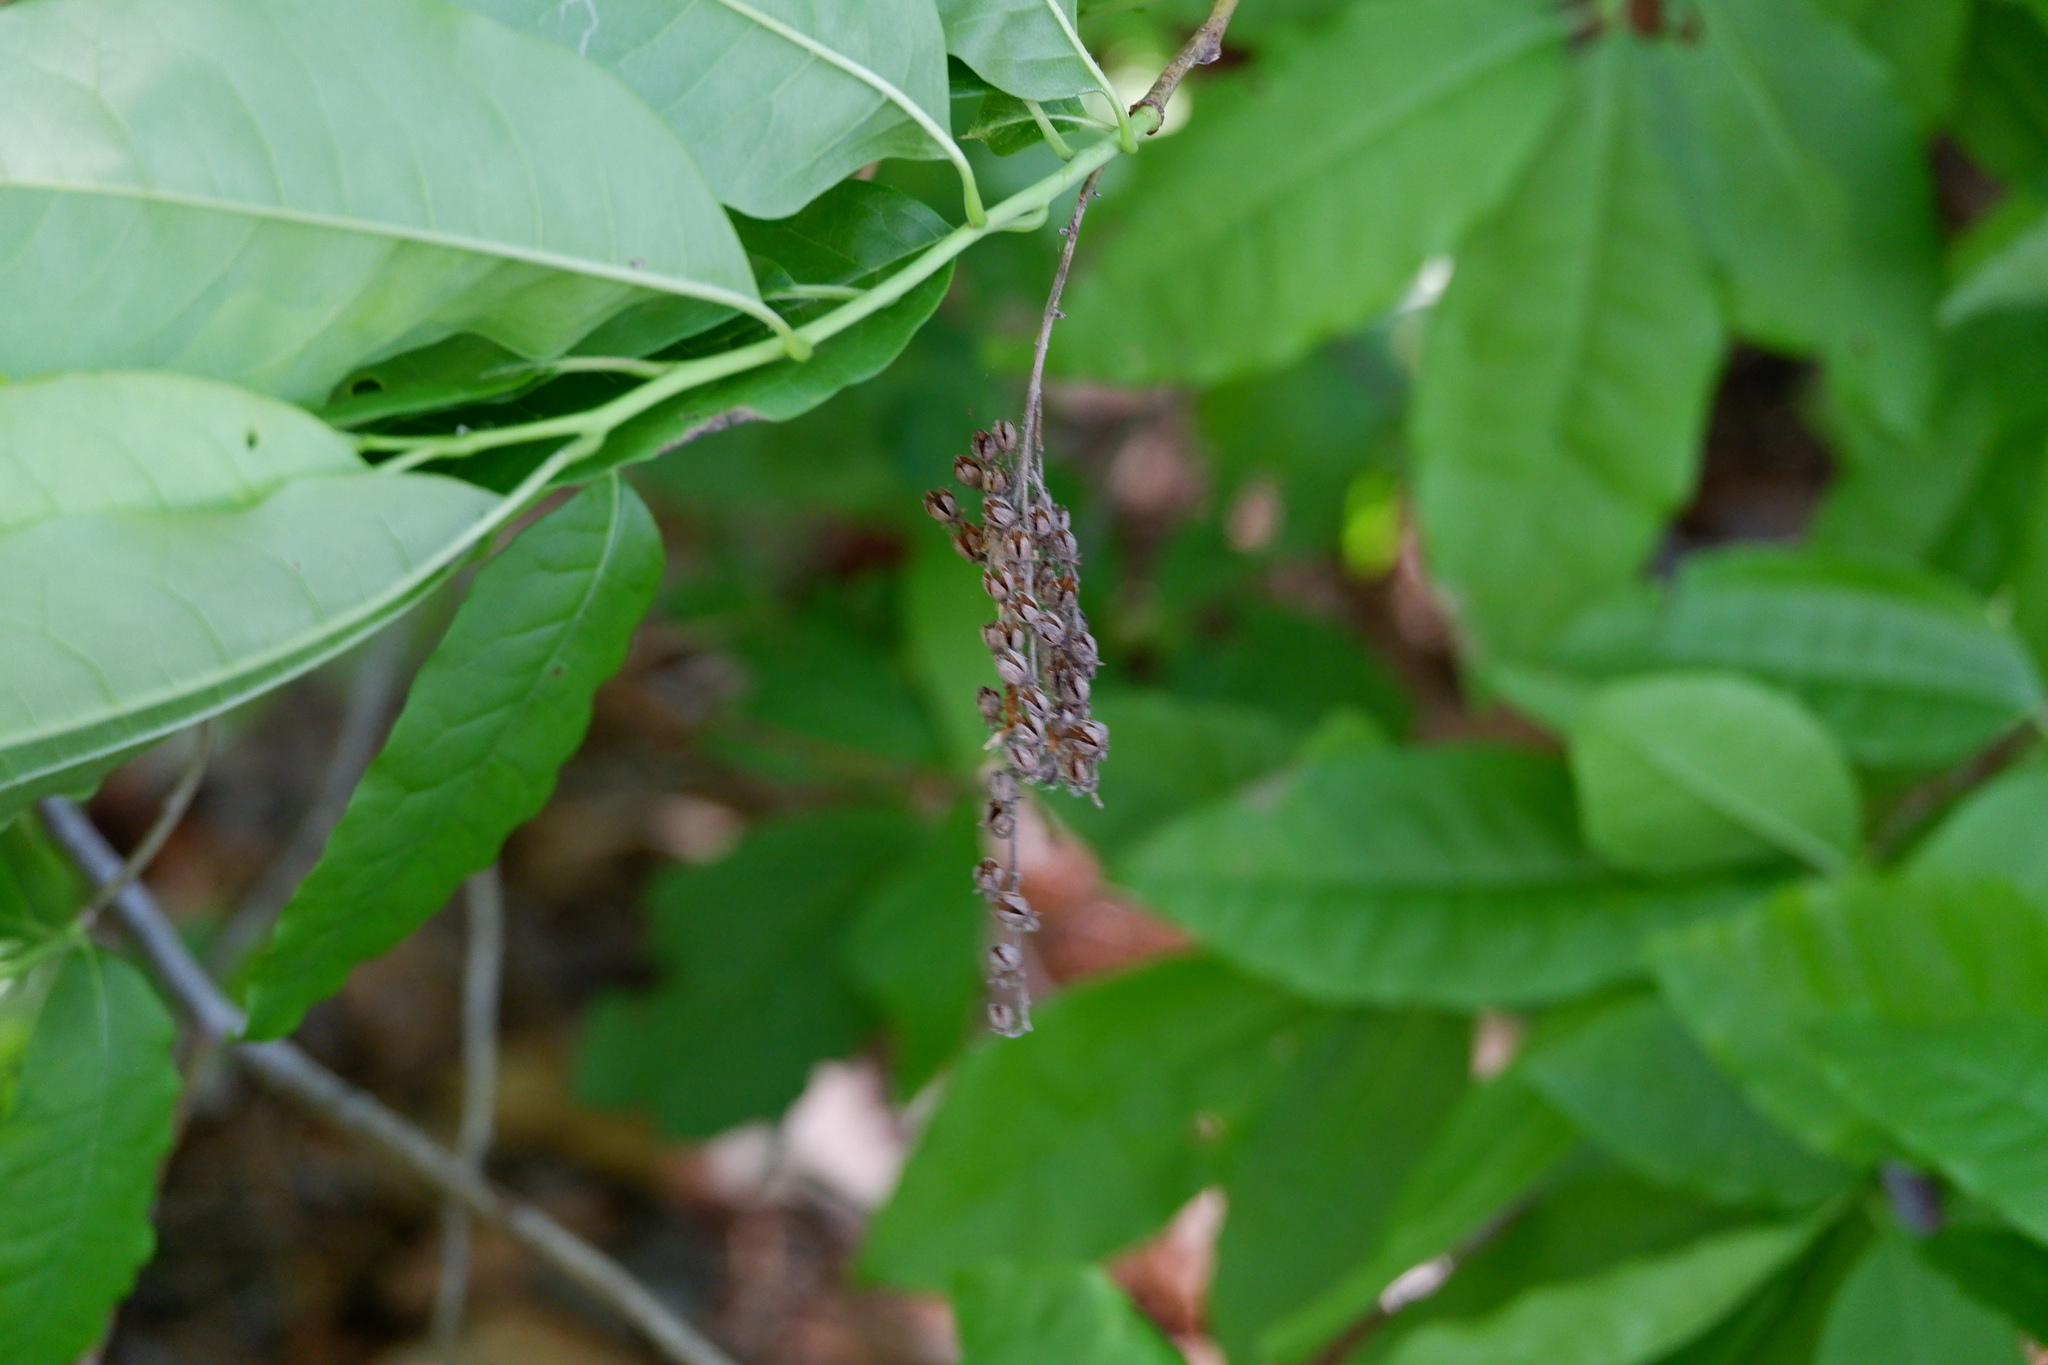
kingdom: Plantae
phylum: Tracheophyta
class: Magnoliopsida
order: Ericales
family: Ericaceae
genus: Oxydendrum
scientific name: Oxydendrum arboreum
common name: Sourwood
